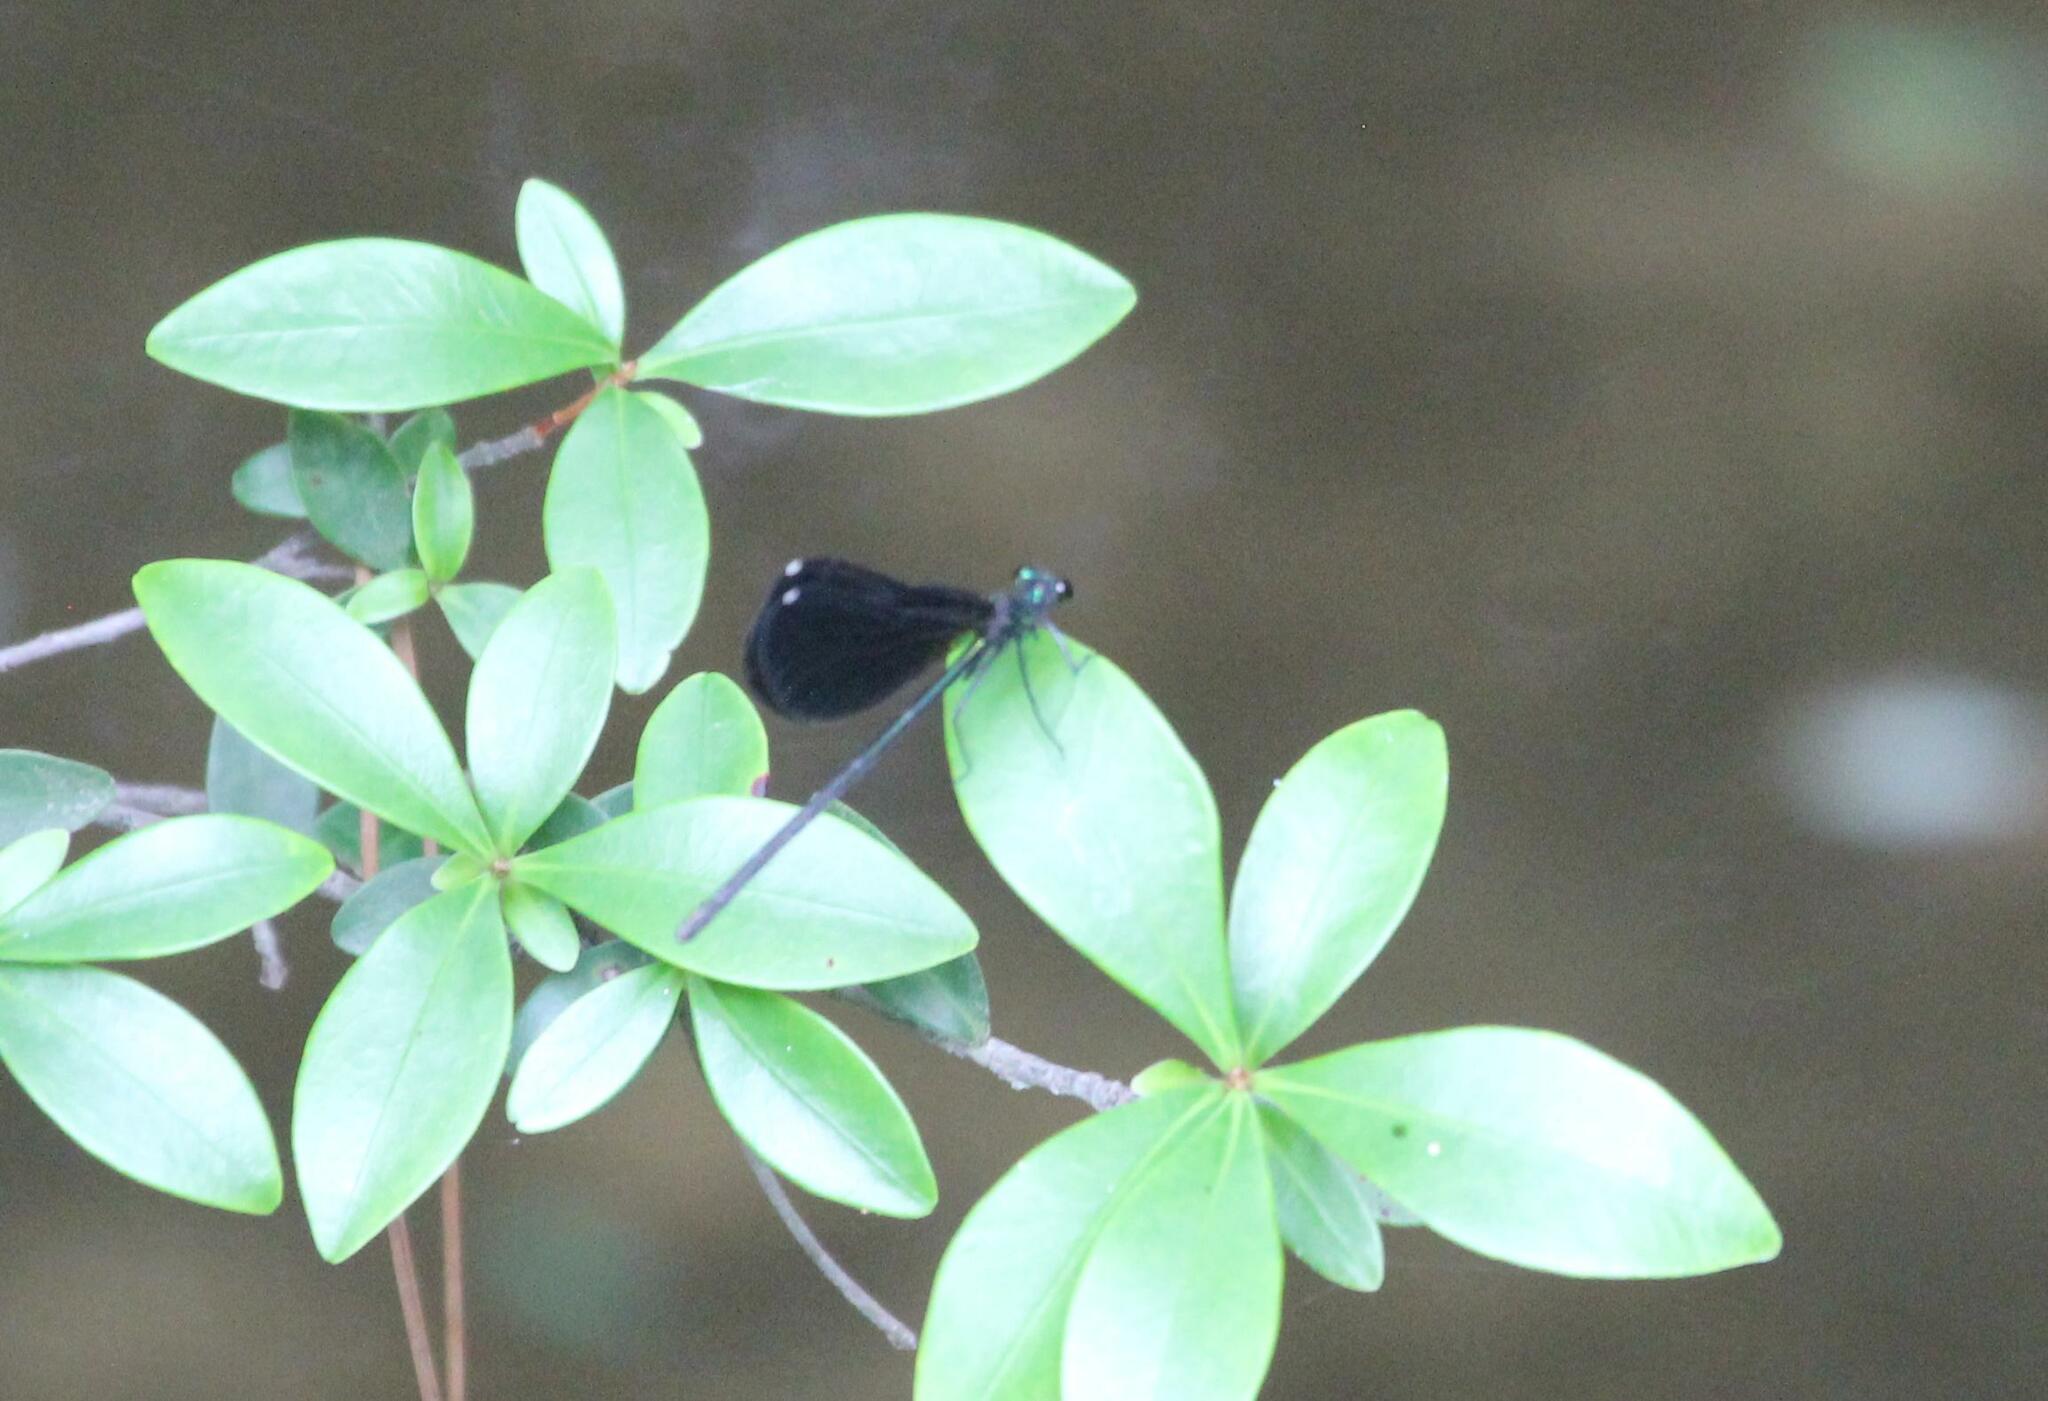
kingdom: Animalia
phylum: Arthropoda
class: Insecta
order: Odonata
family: Calopterygidae
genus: Calopteryx
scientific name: Calopteryx maculata
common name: Ebony jewelwing
